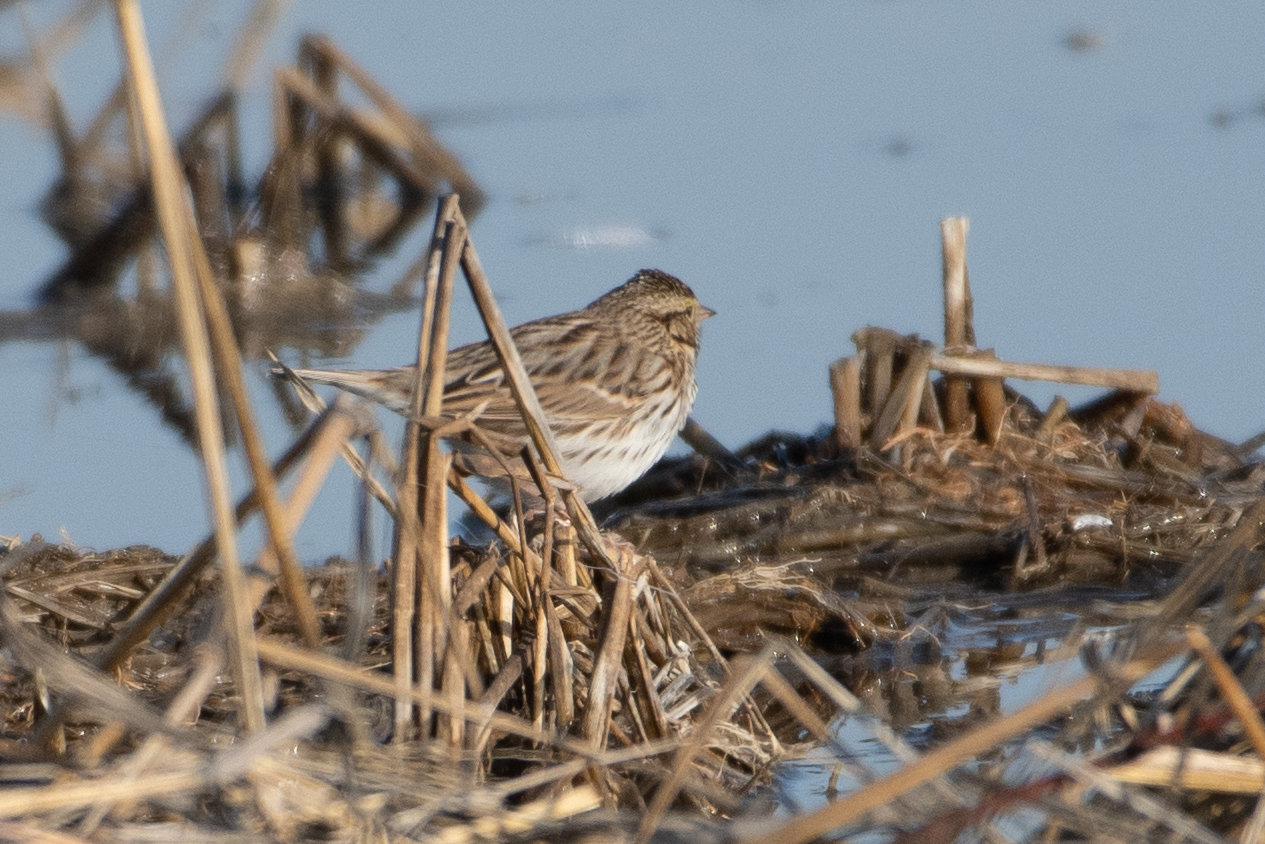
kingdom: Animalia
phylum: Chordata
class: Aves
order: Passeriformes
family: Passerellidae
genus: Passerculus
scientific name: Passerculus sandwichensis
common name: Savannah sparrow
